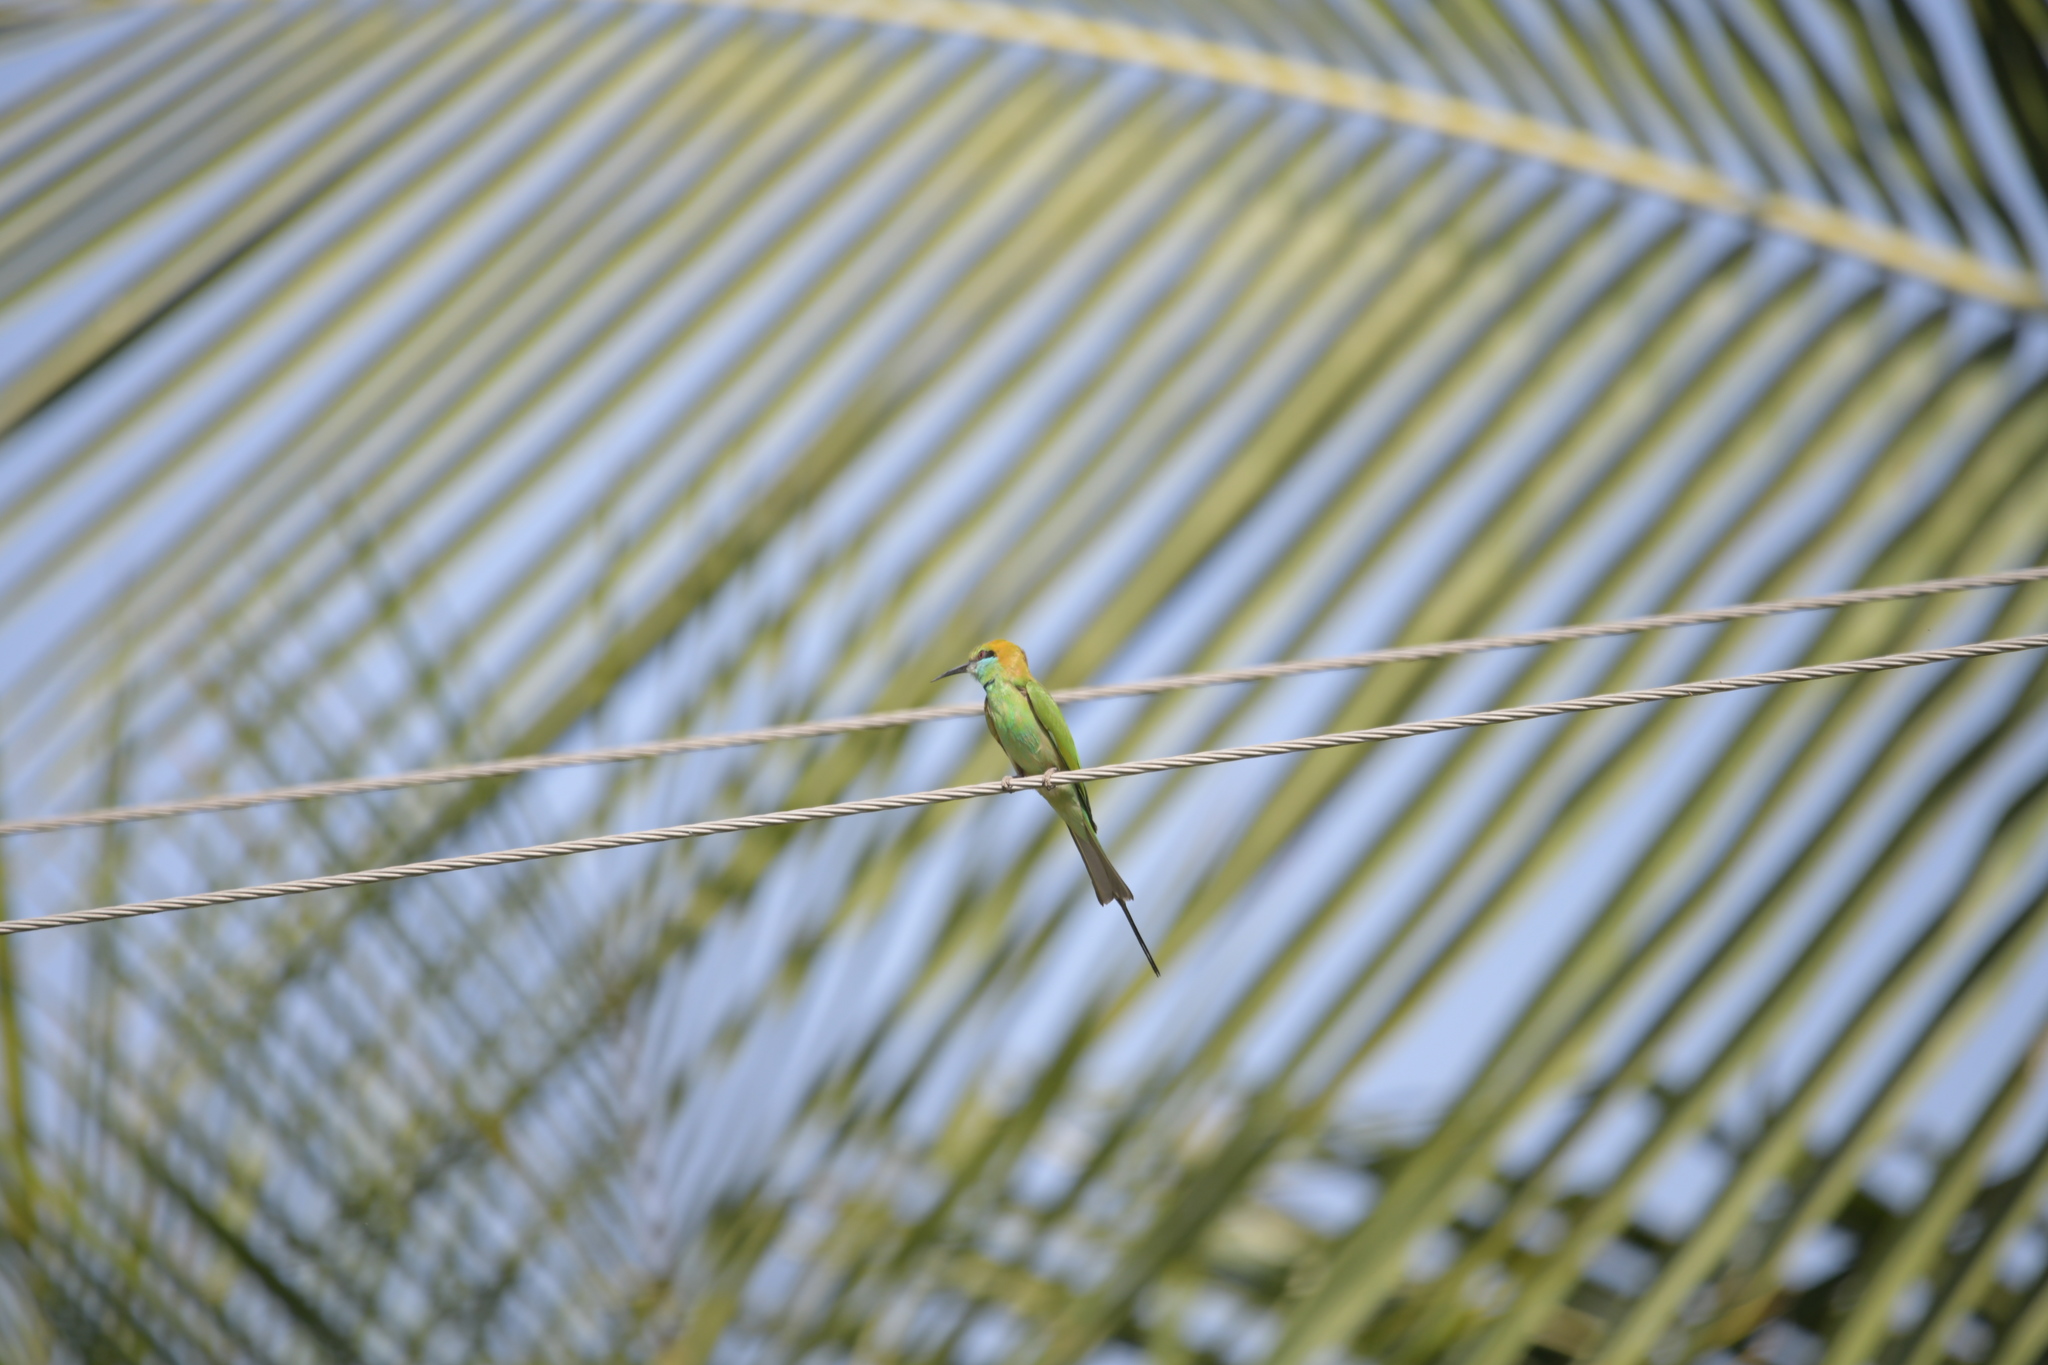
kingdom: Animalia
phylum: Chordata
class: Aves
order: Coraciiformes
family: Meropidae
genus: Merops
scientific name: Merops orientalis
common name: Green bee-eater
